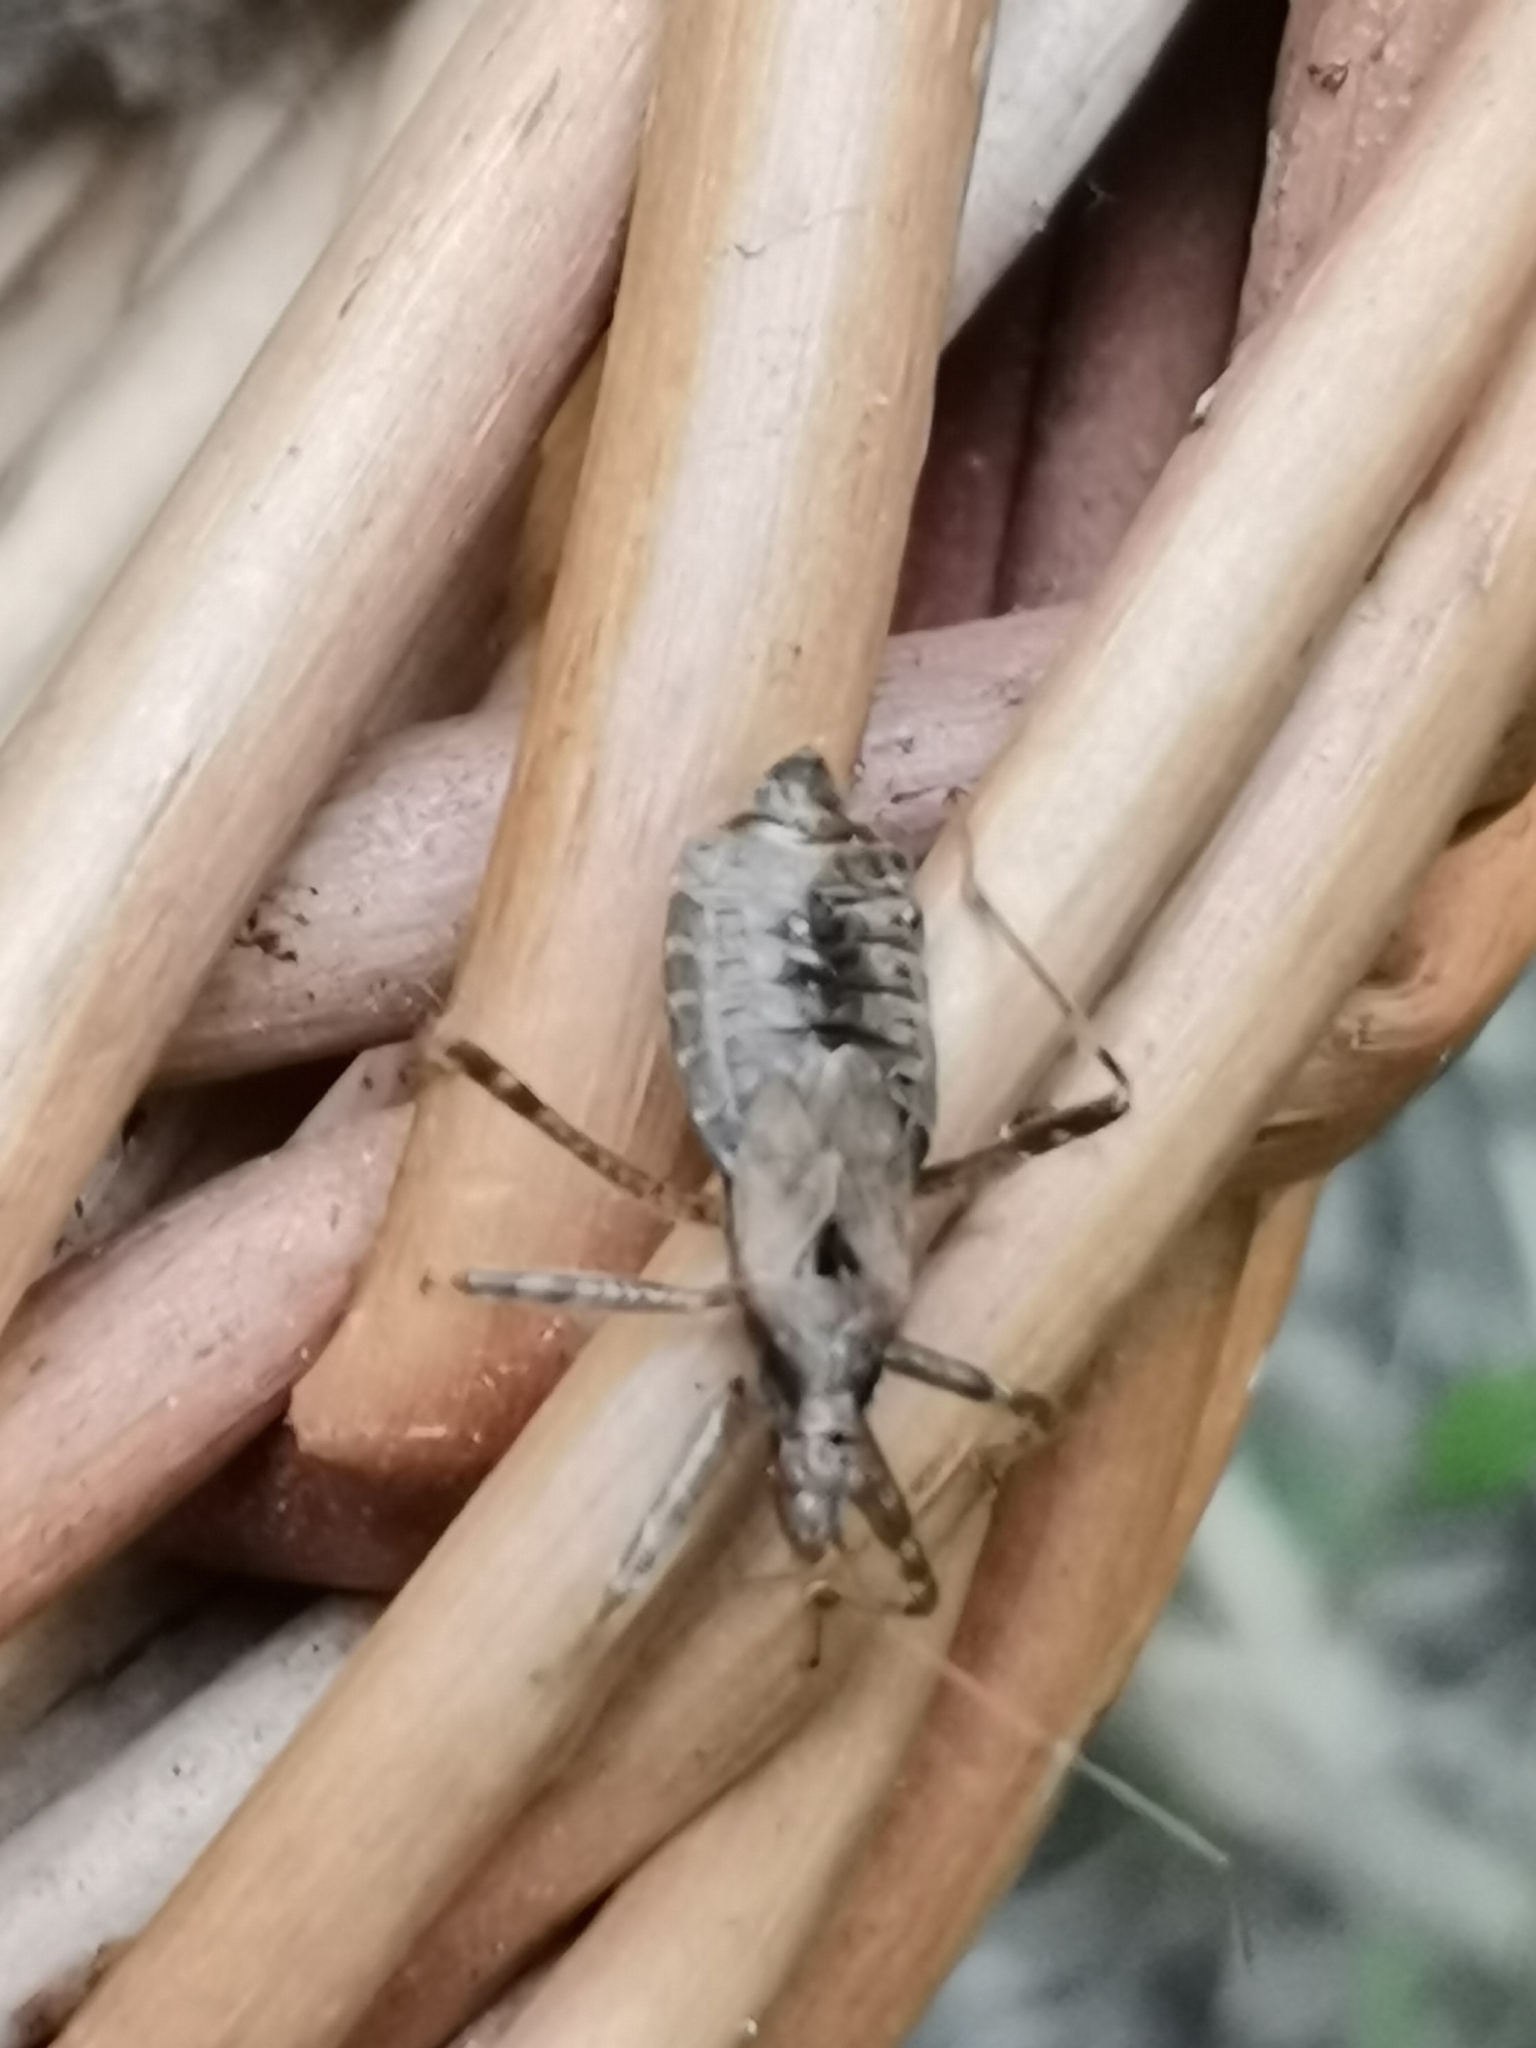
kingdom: Animalia
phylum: Arthropoda
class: Insecta
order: Hemiptera
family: Nabidae
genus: Himacerus
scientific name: Himacerus apterus
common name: Tree damsel bug
